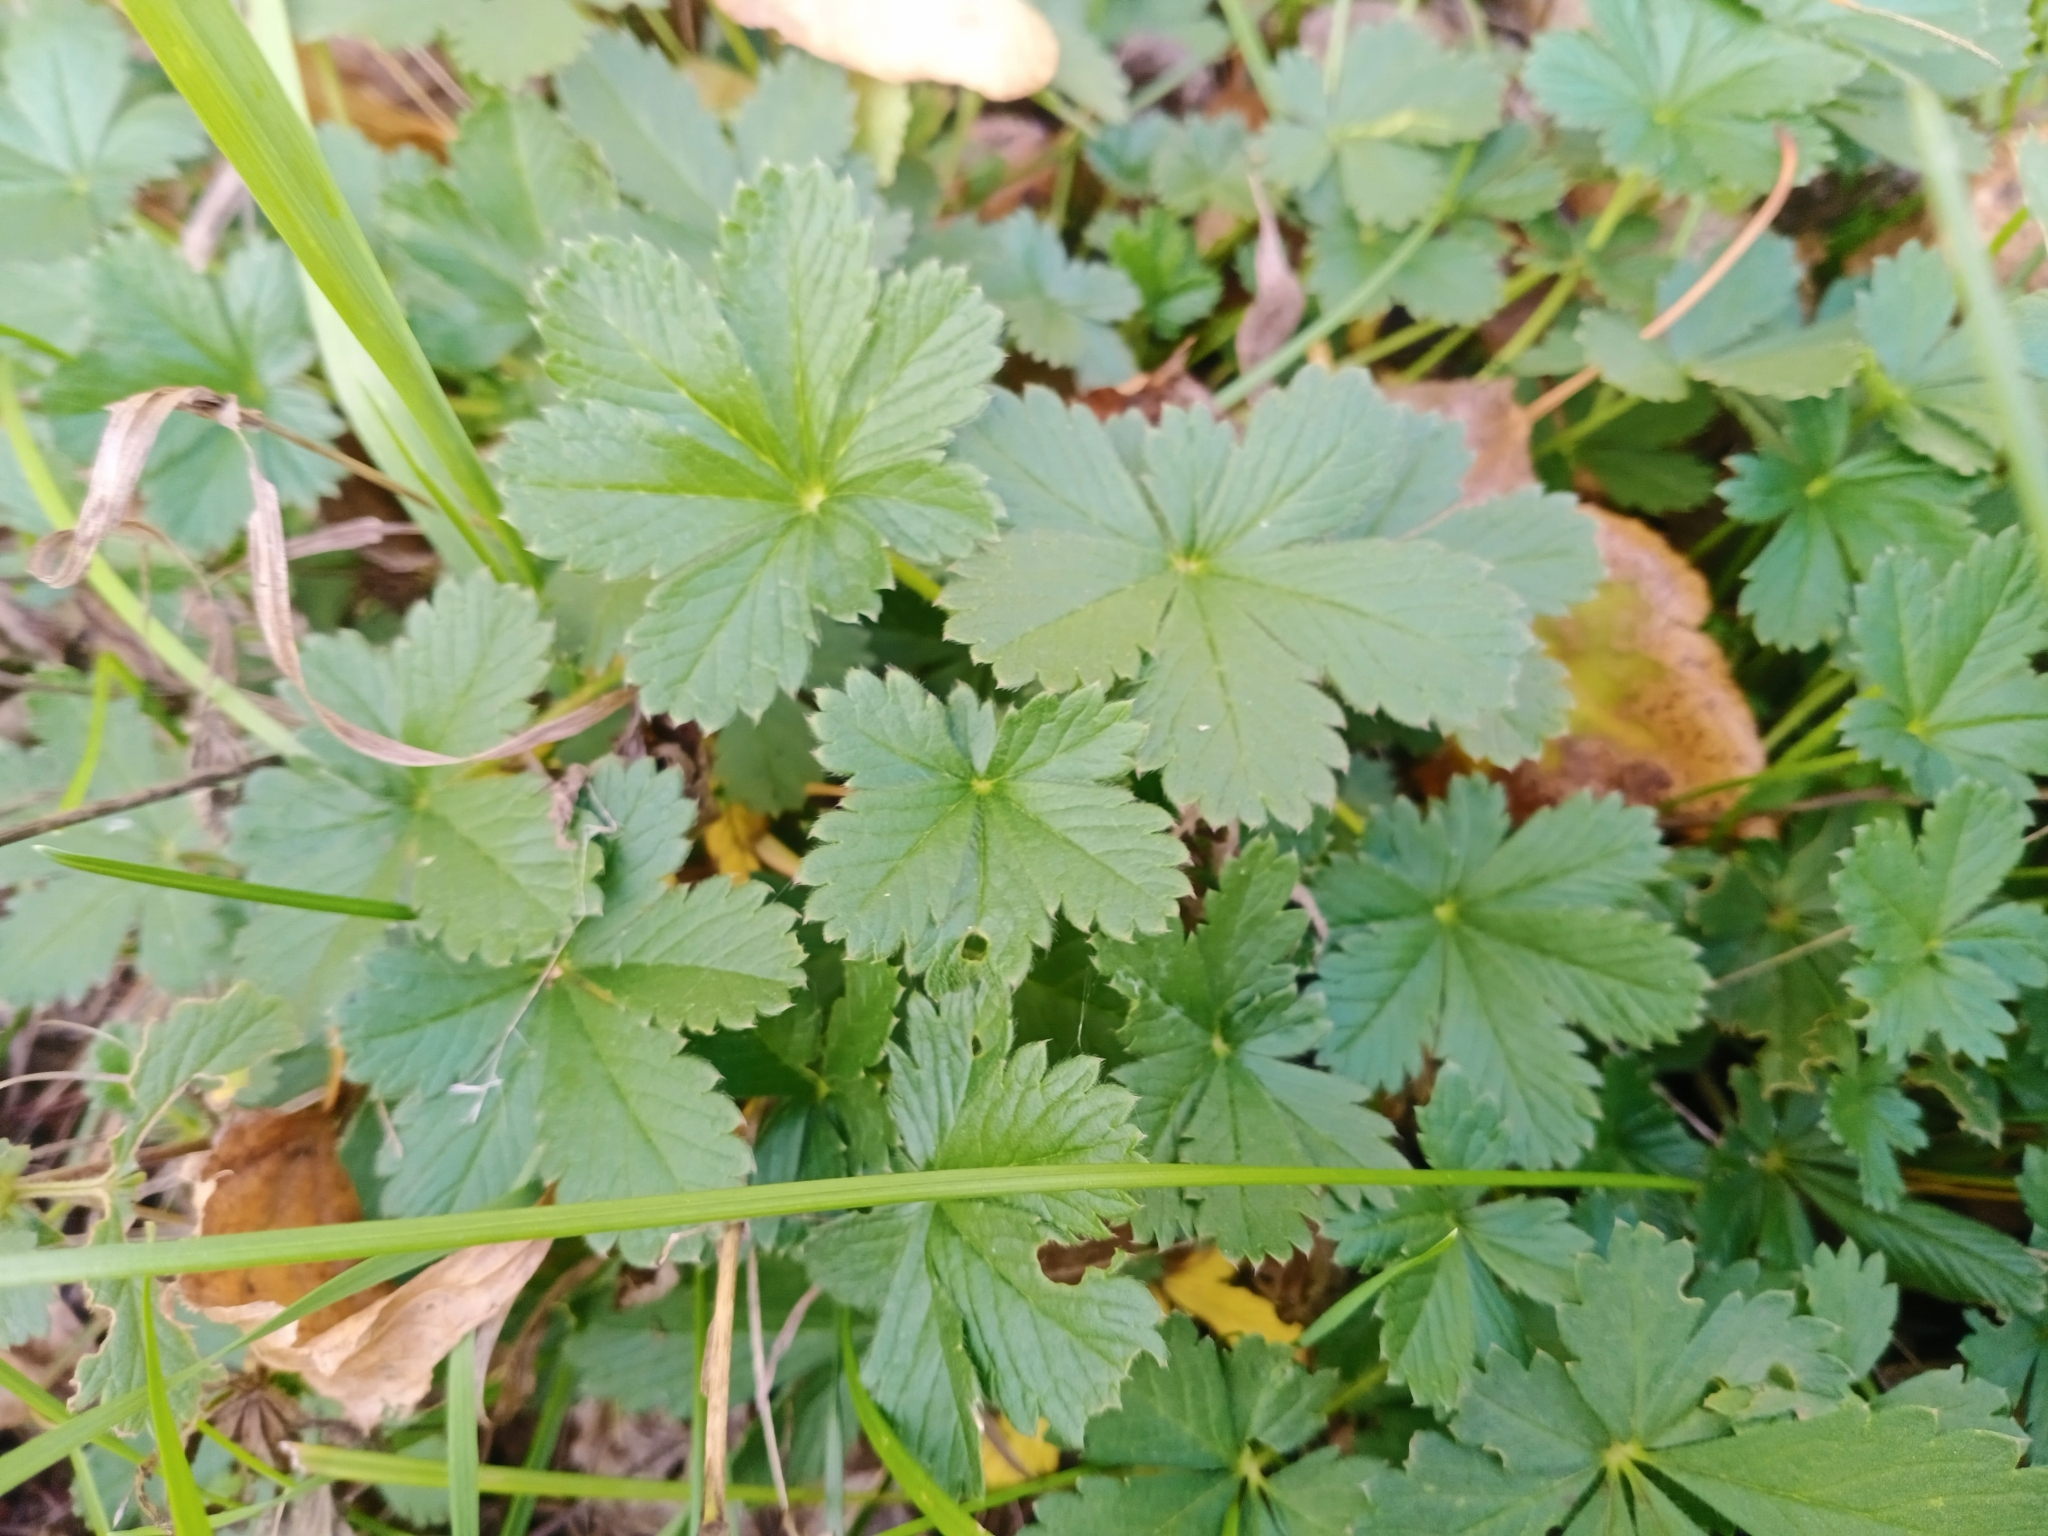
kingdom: Plantae
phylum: Tracheophyta
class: Magnoliopsida
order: Rosales
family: Rosaceae
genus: Potentilla
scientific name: Potentilla thuringiaca
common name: European cinquefoil
